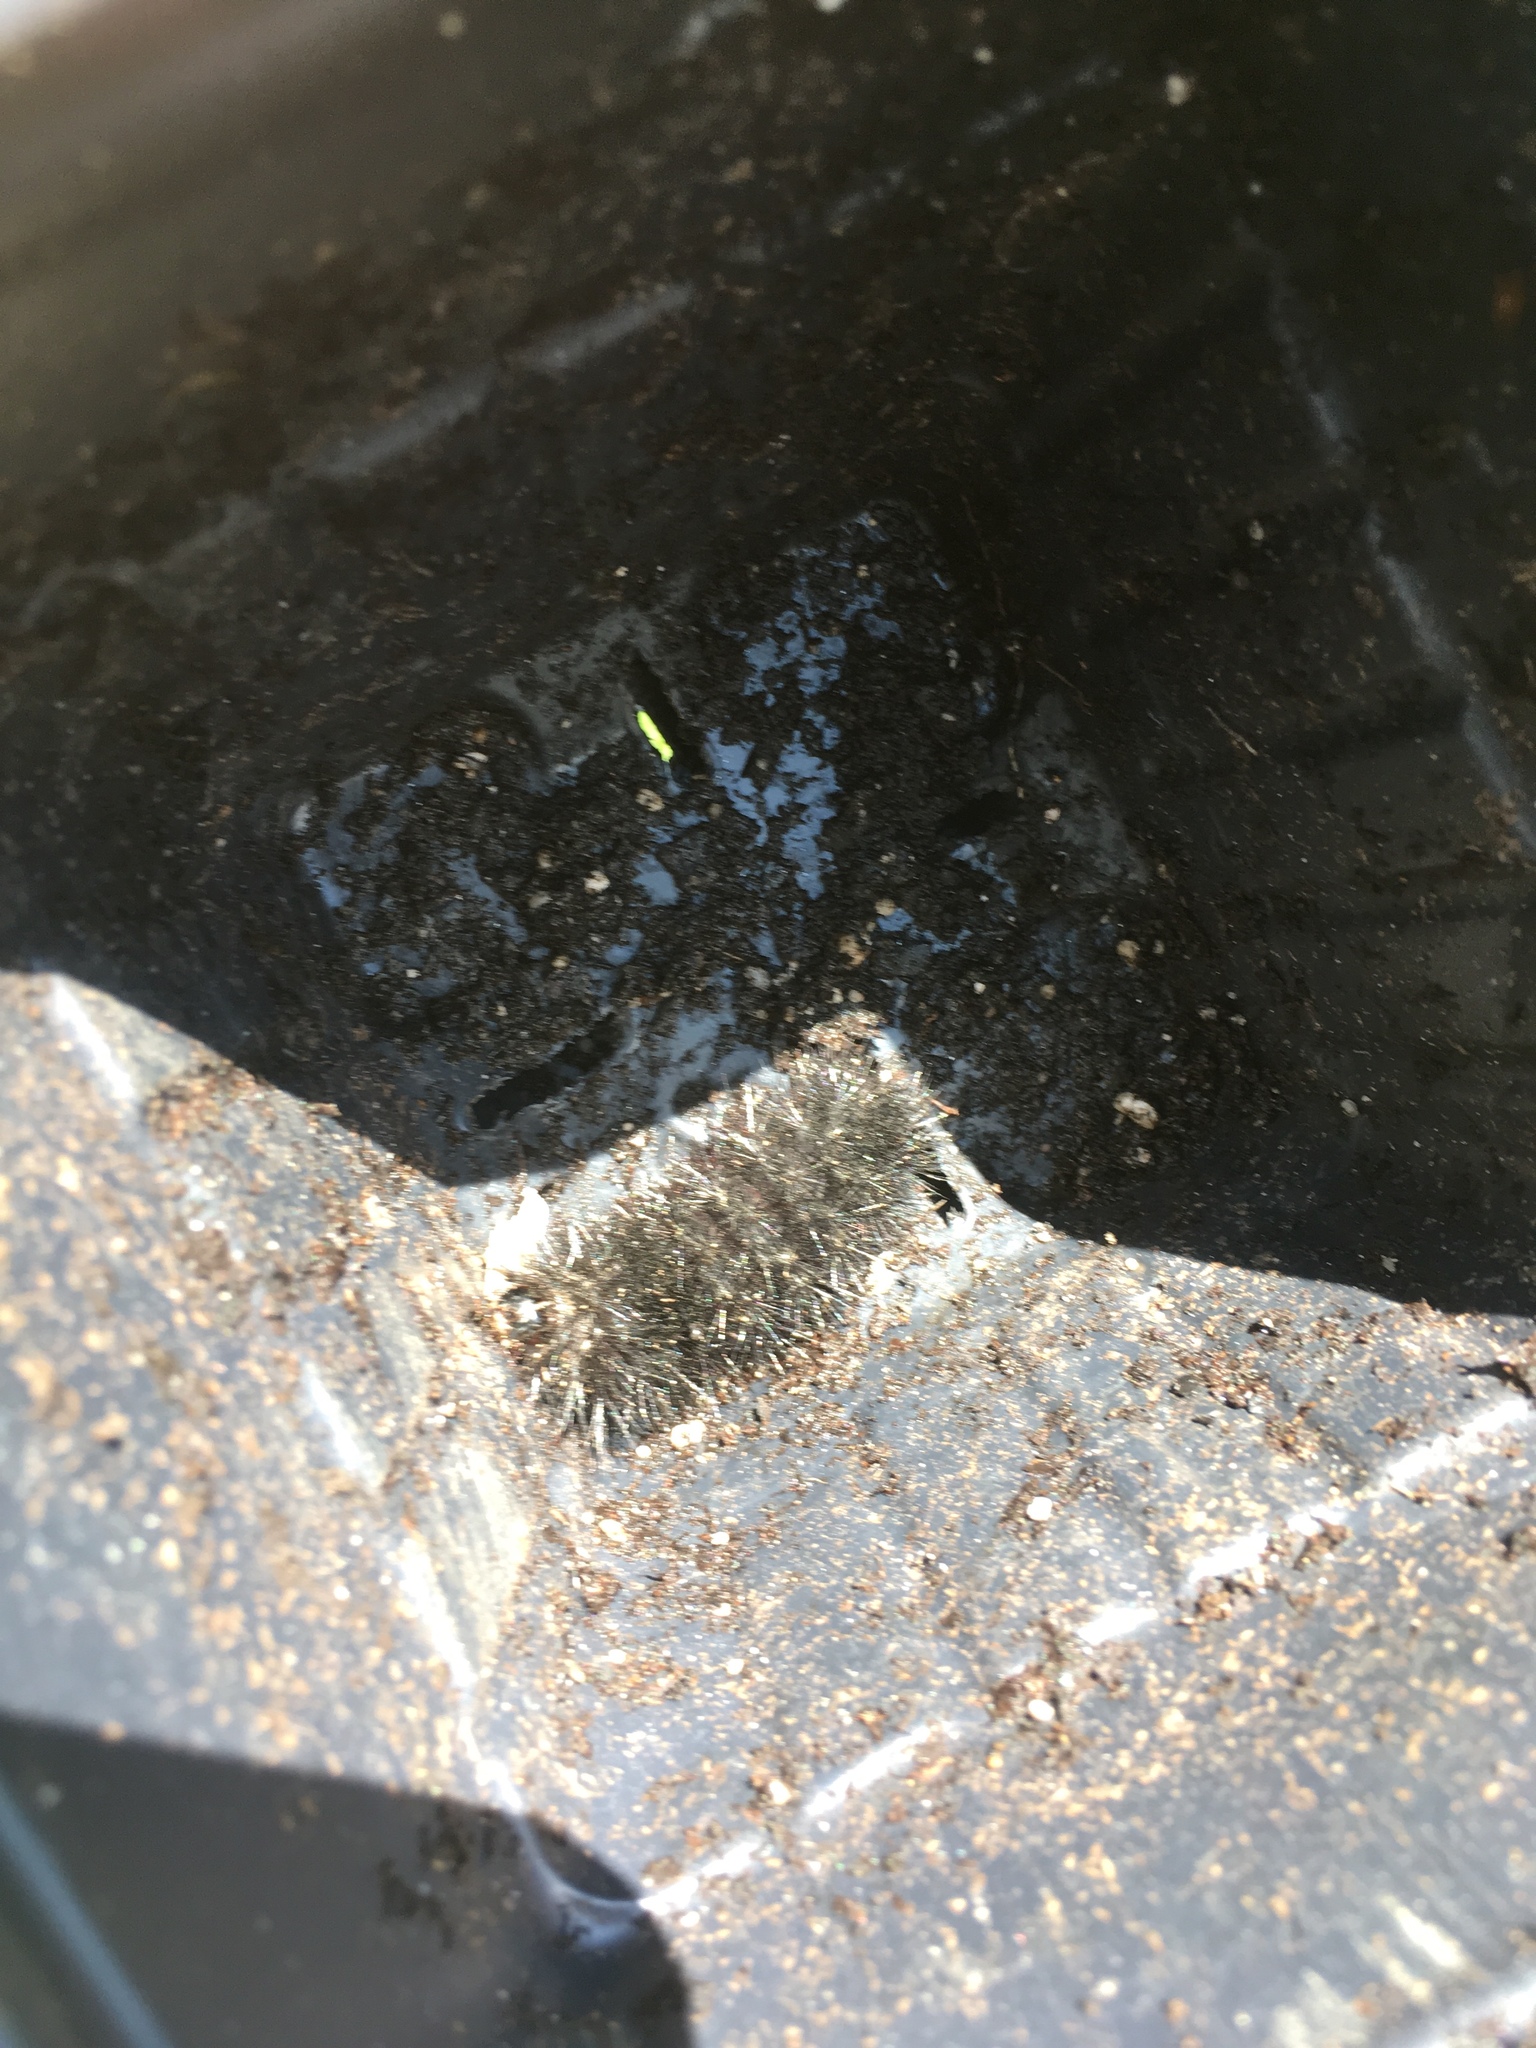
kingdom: Animalia
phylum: Arthropoda
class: Insecta
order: Lepidoptera
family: Erebidae
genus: Hypercompe
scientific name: Hypercompe scribonia
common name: Giant leopard moth
